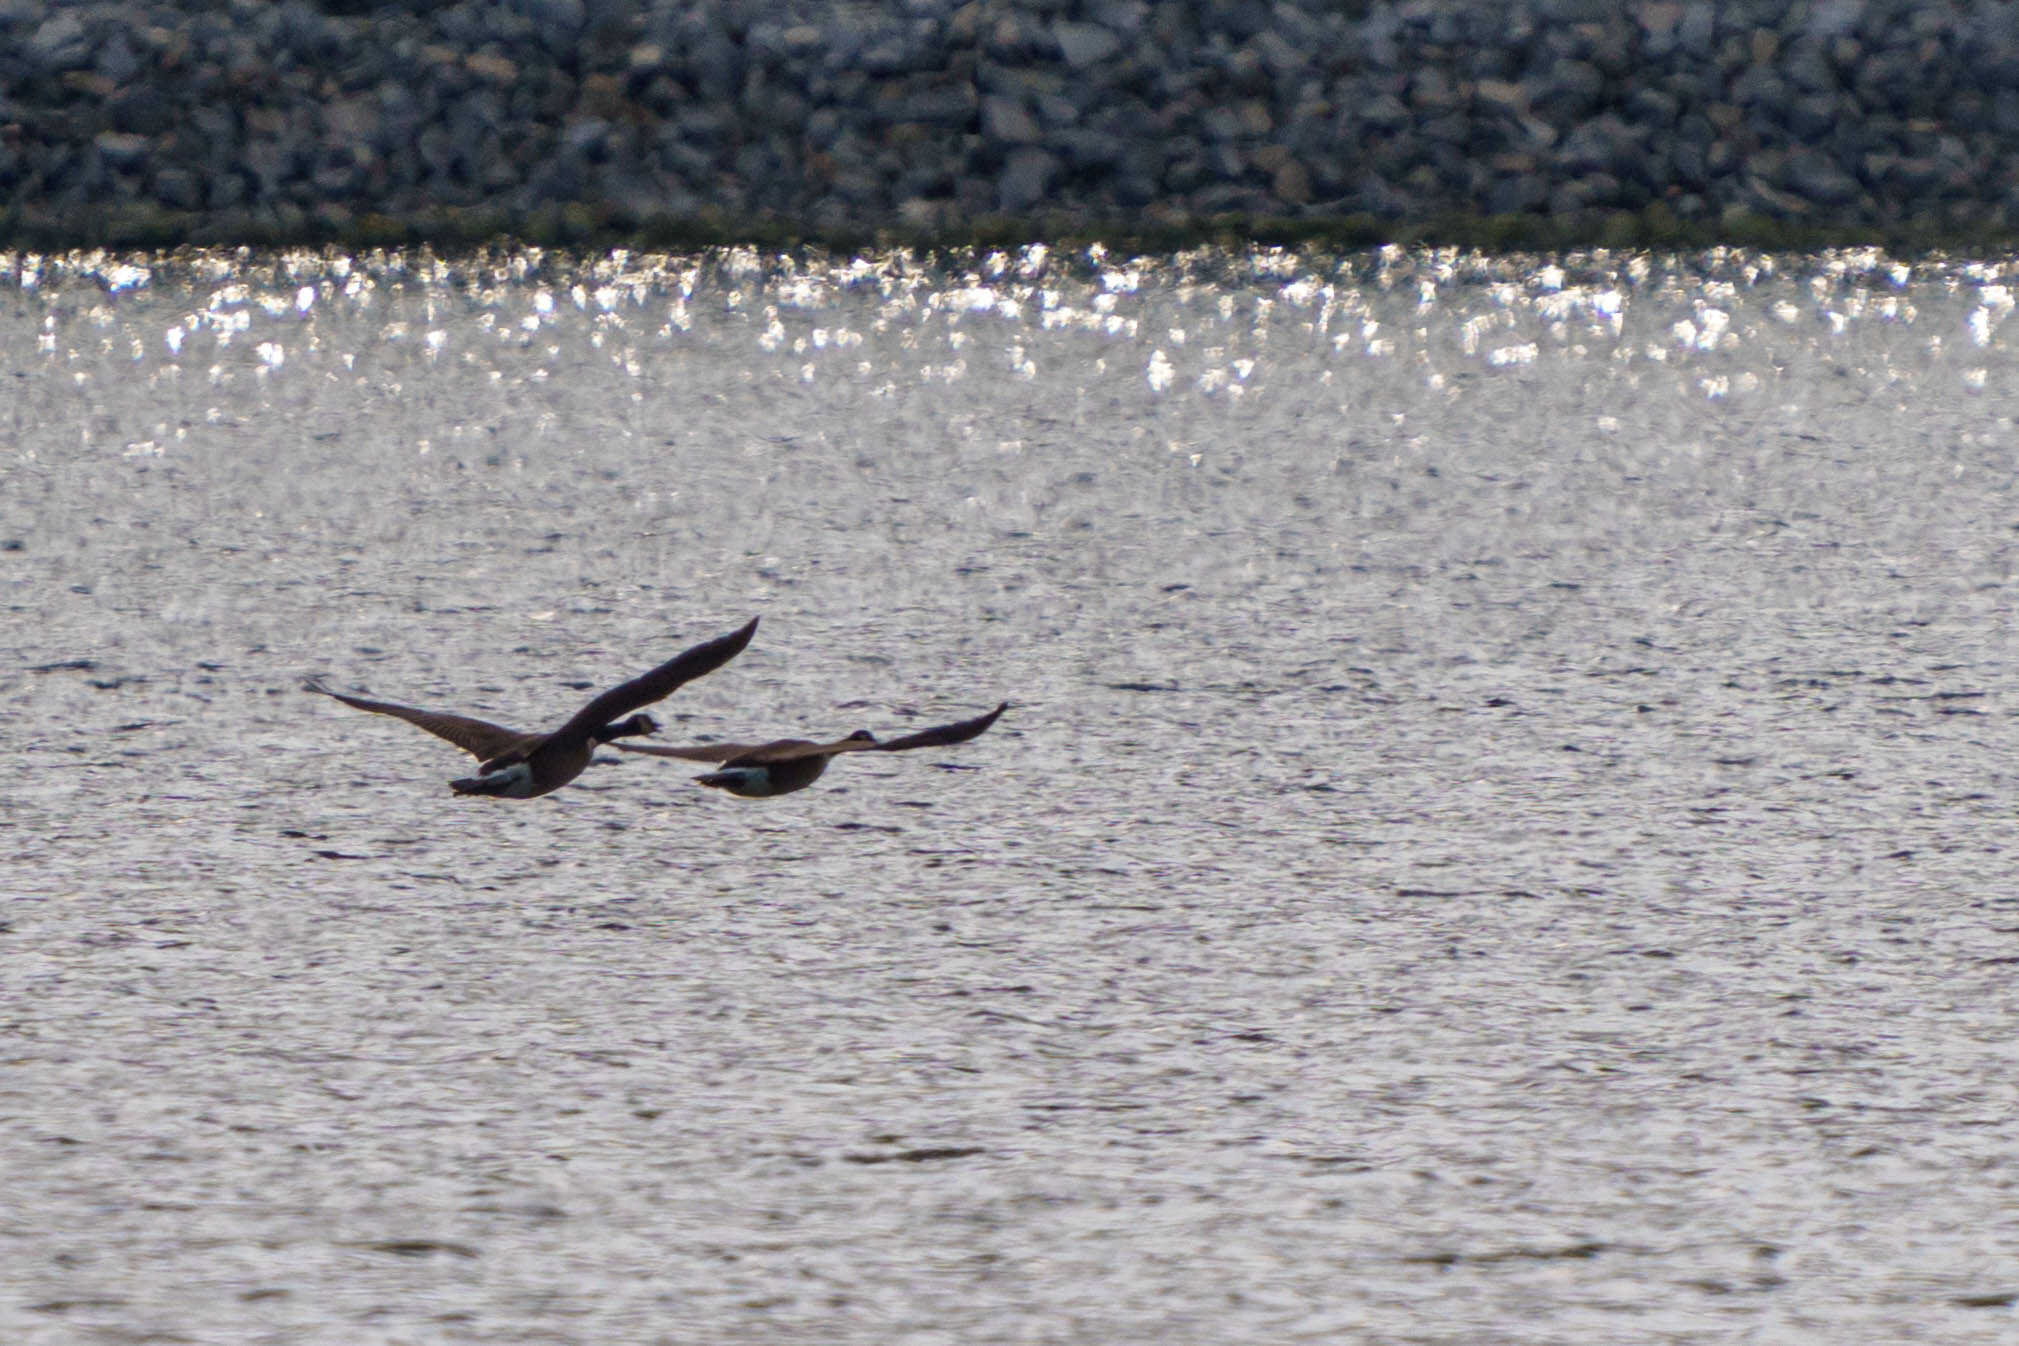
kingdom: Animalia
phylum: Chordata
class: Aves
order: Anseriformes
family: Anatidae
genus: Branta
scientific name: Branta canadensis
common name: Canada goose
